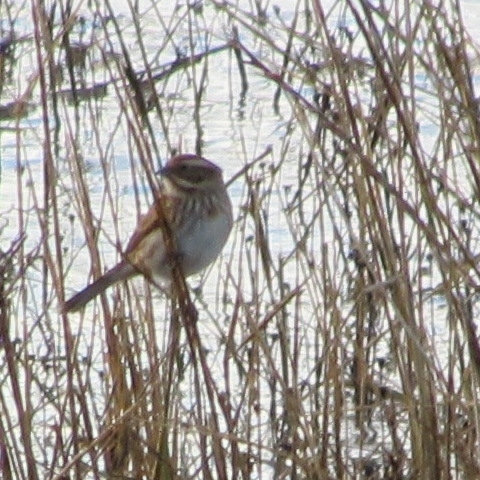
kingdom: Animalia
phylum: Chordata
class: Aves
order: Passeriformes
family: Emberizidae
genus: Emberiza
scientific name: Emberiza schoeniclus
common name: Reed bunting
